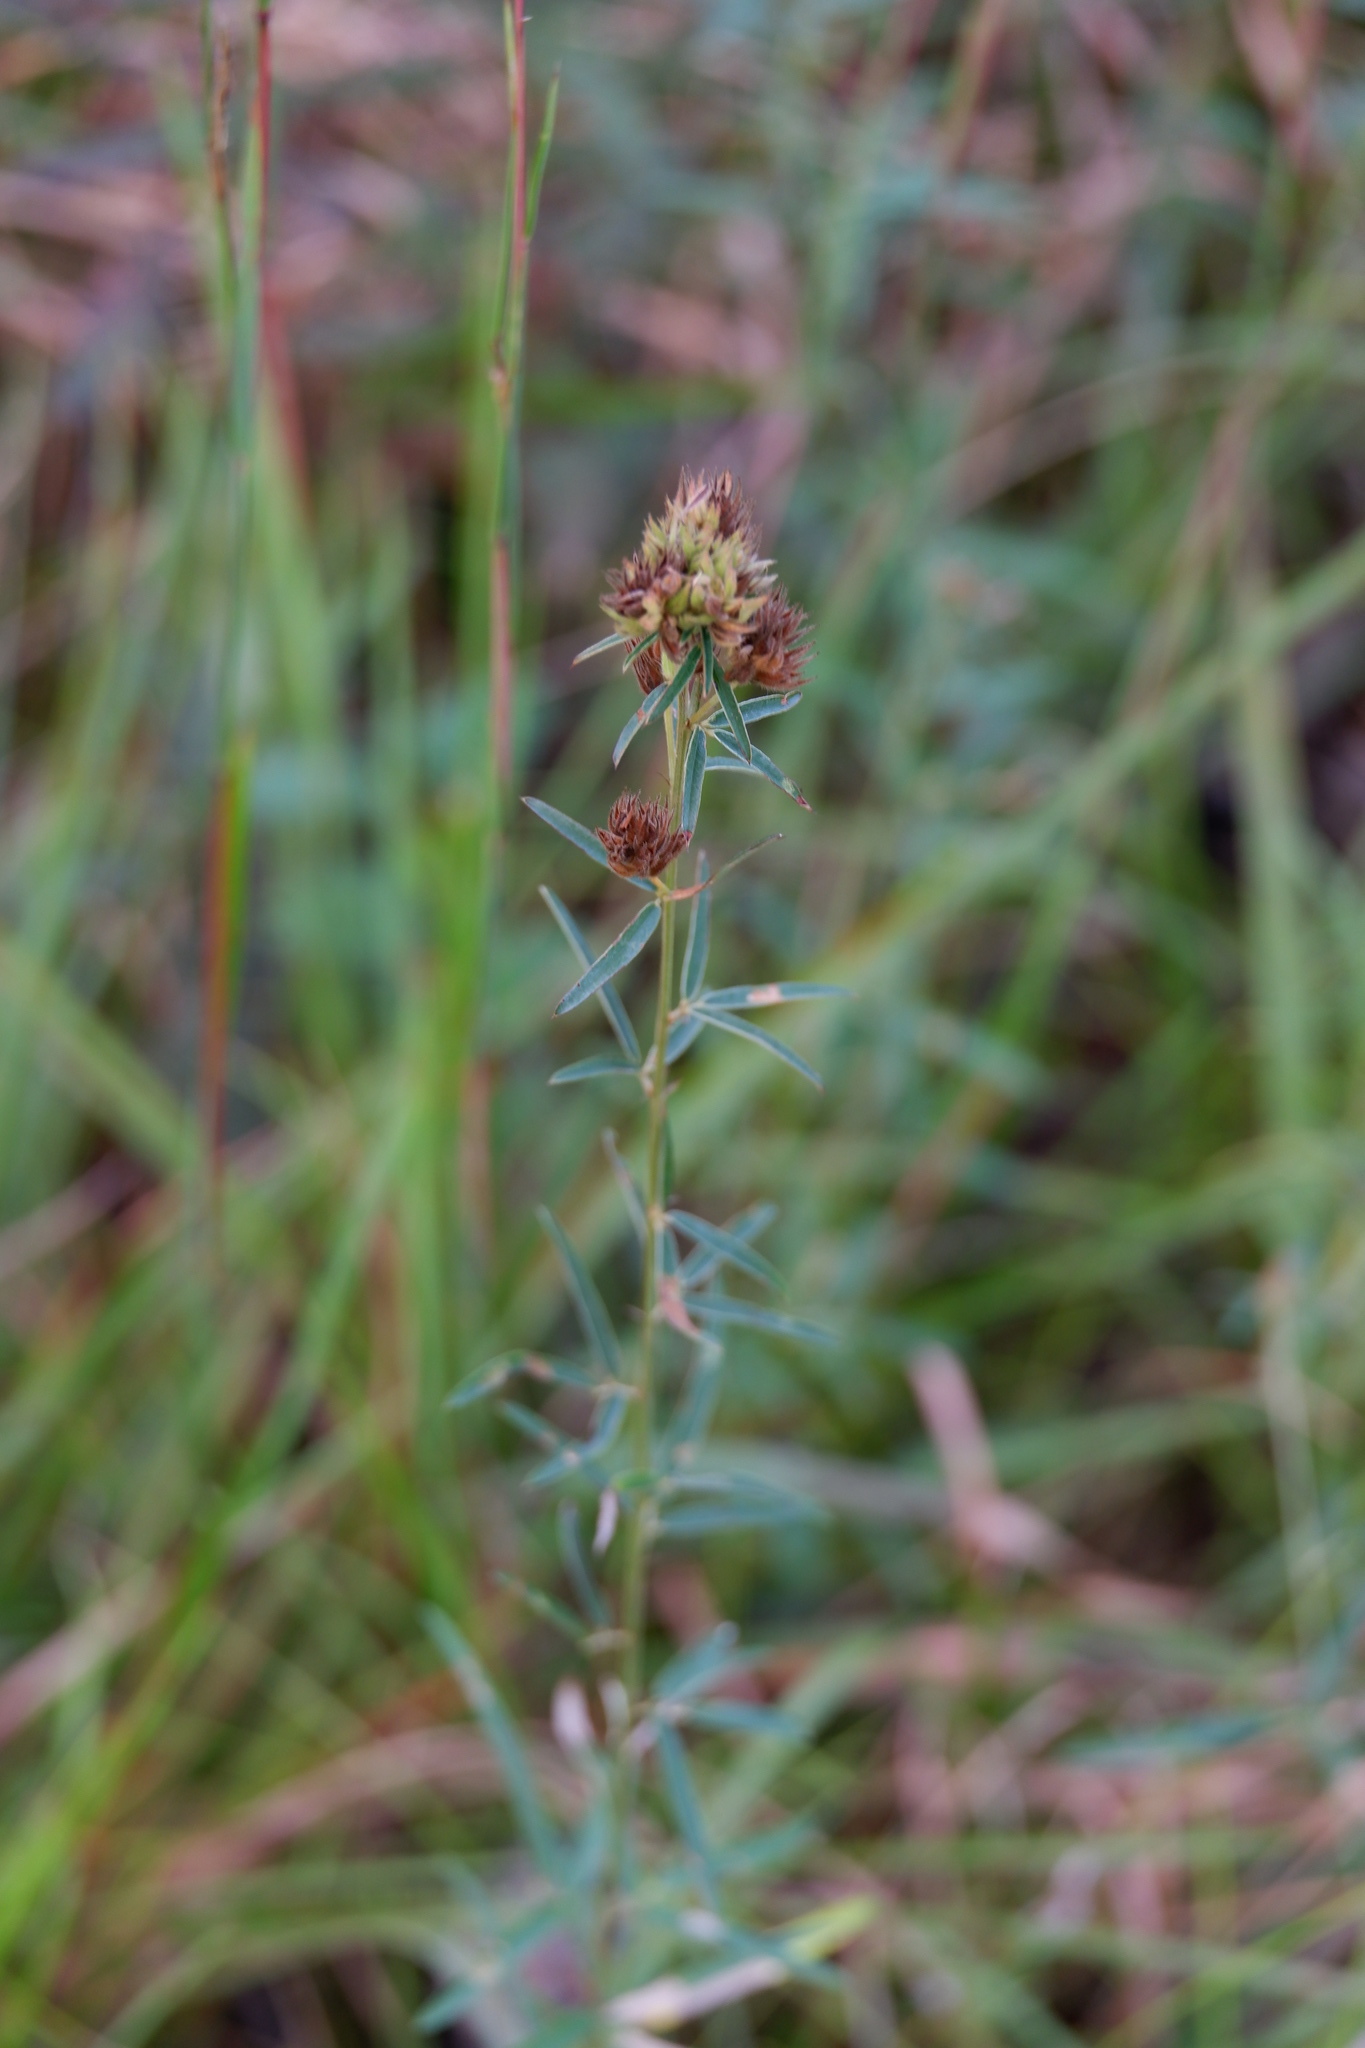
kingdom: Plantae
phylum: Tracheophyta
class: Magnoliopsida
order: Fabales
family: Fabaceae
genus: Lespedeza
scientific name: Lespedeza angustifolia
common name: Narrow-leaf bush-clover
